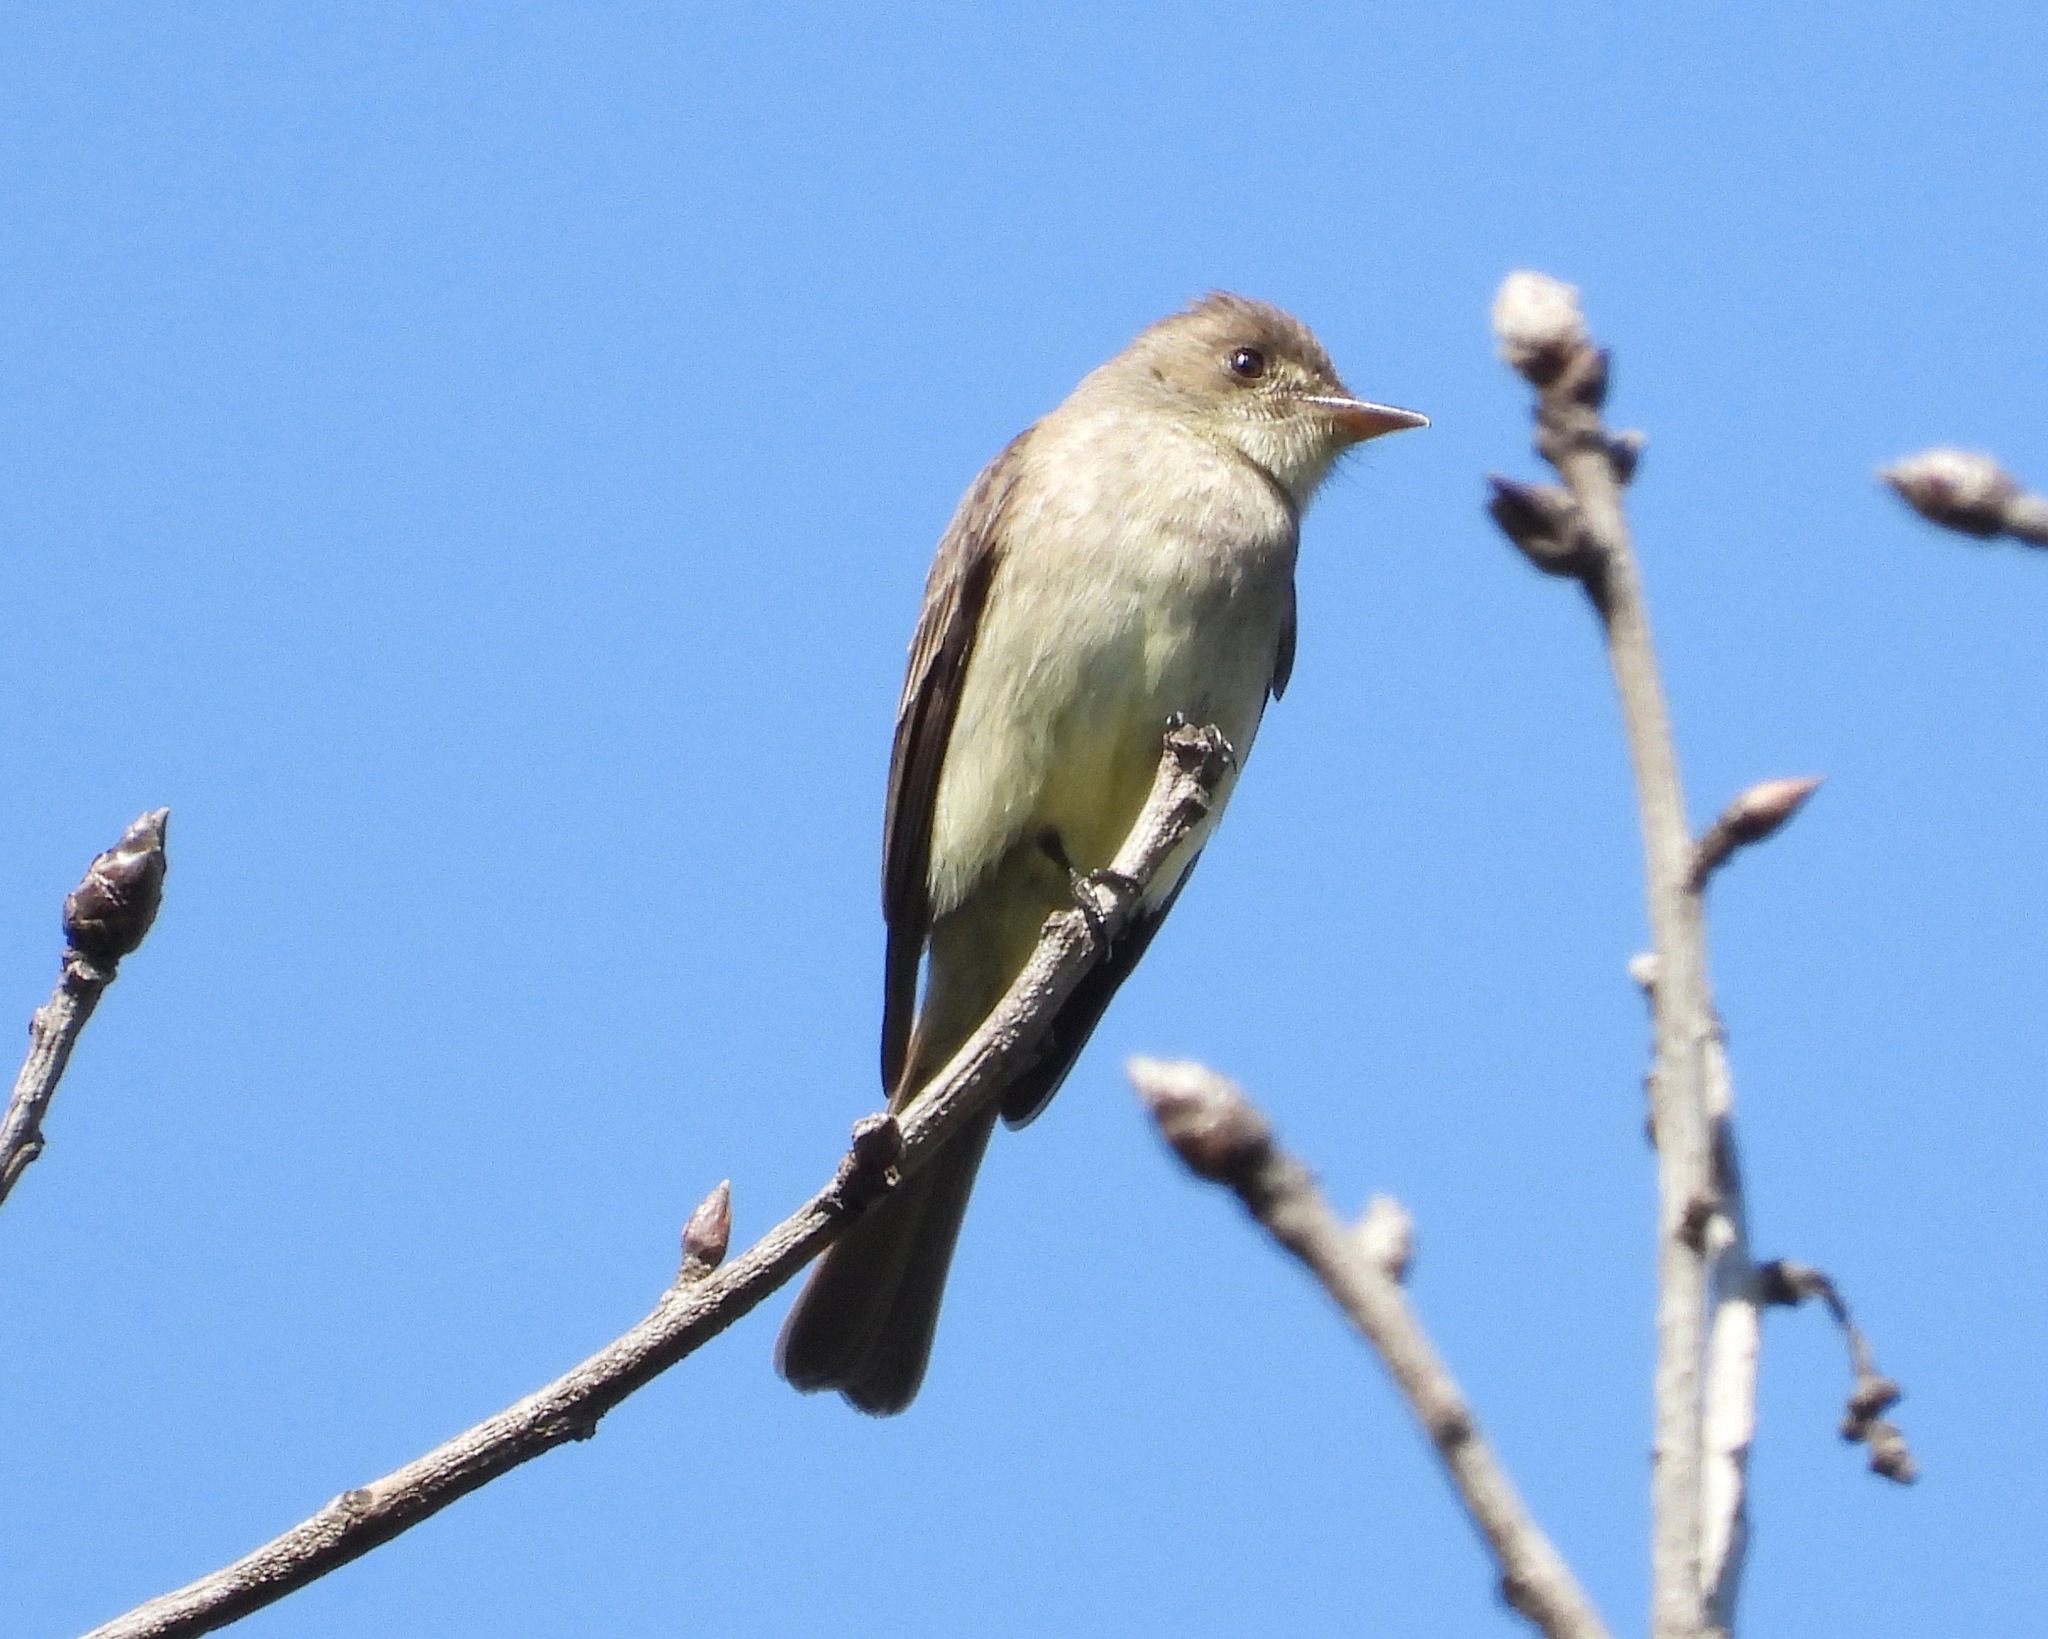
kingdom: Animalia
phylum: Chordata
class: Aves
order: Passeriformes
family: Tyrannidae
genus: Contopus
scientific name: Contopus cinereus
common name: Tropical pewee
